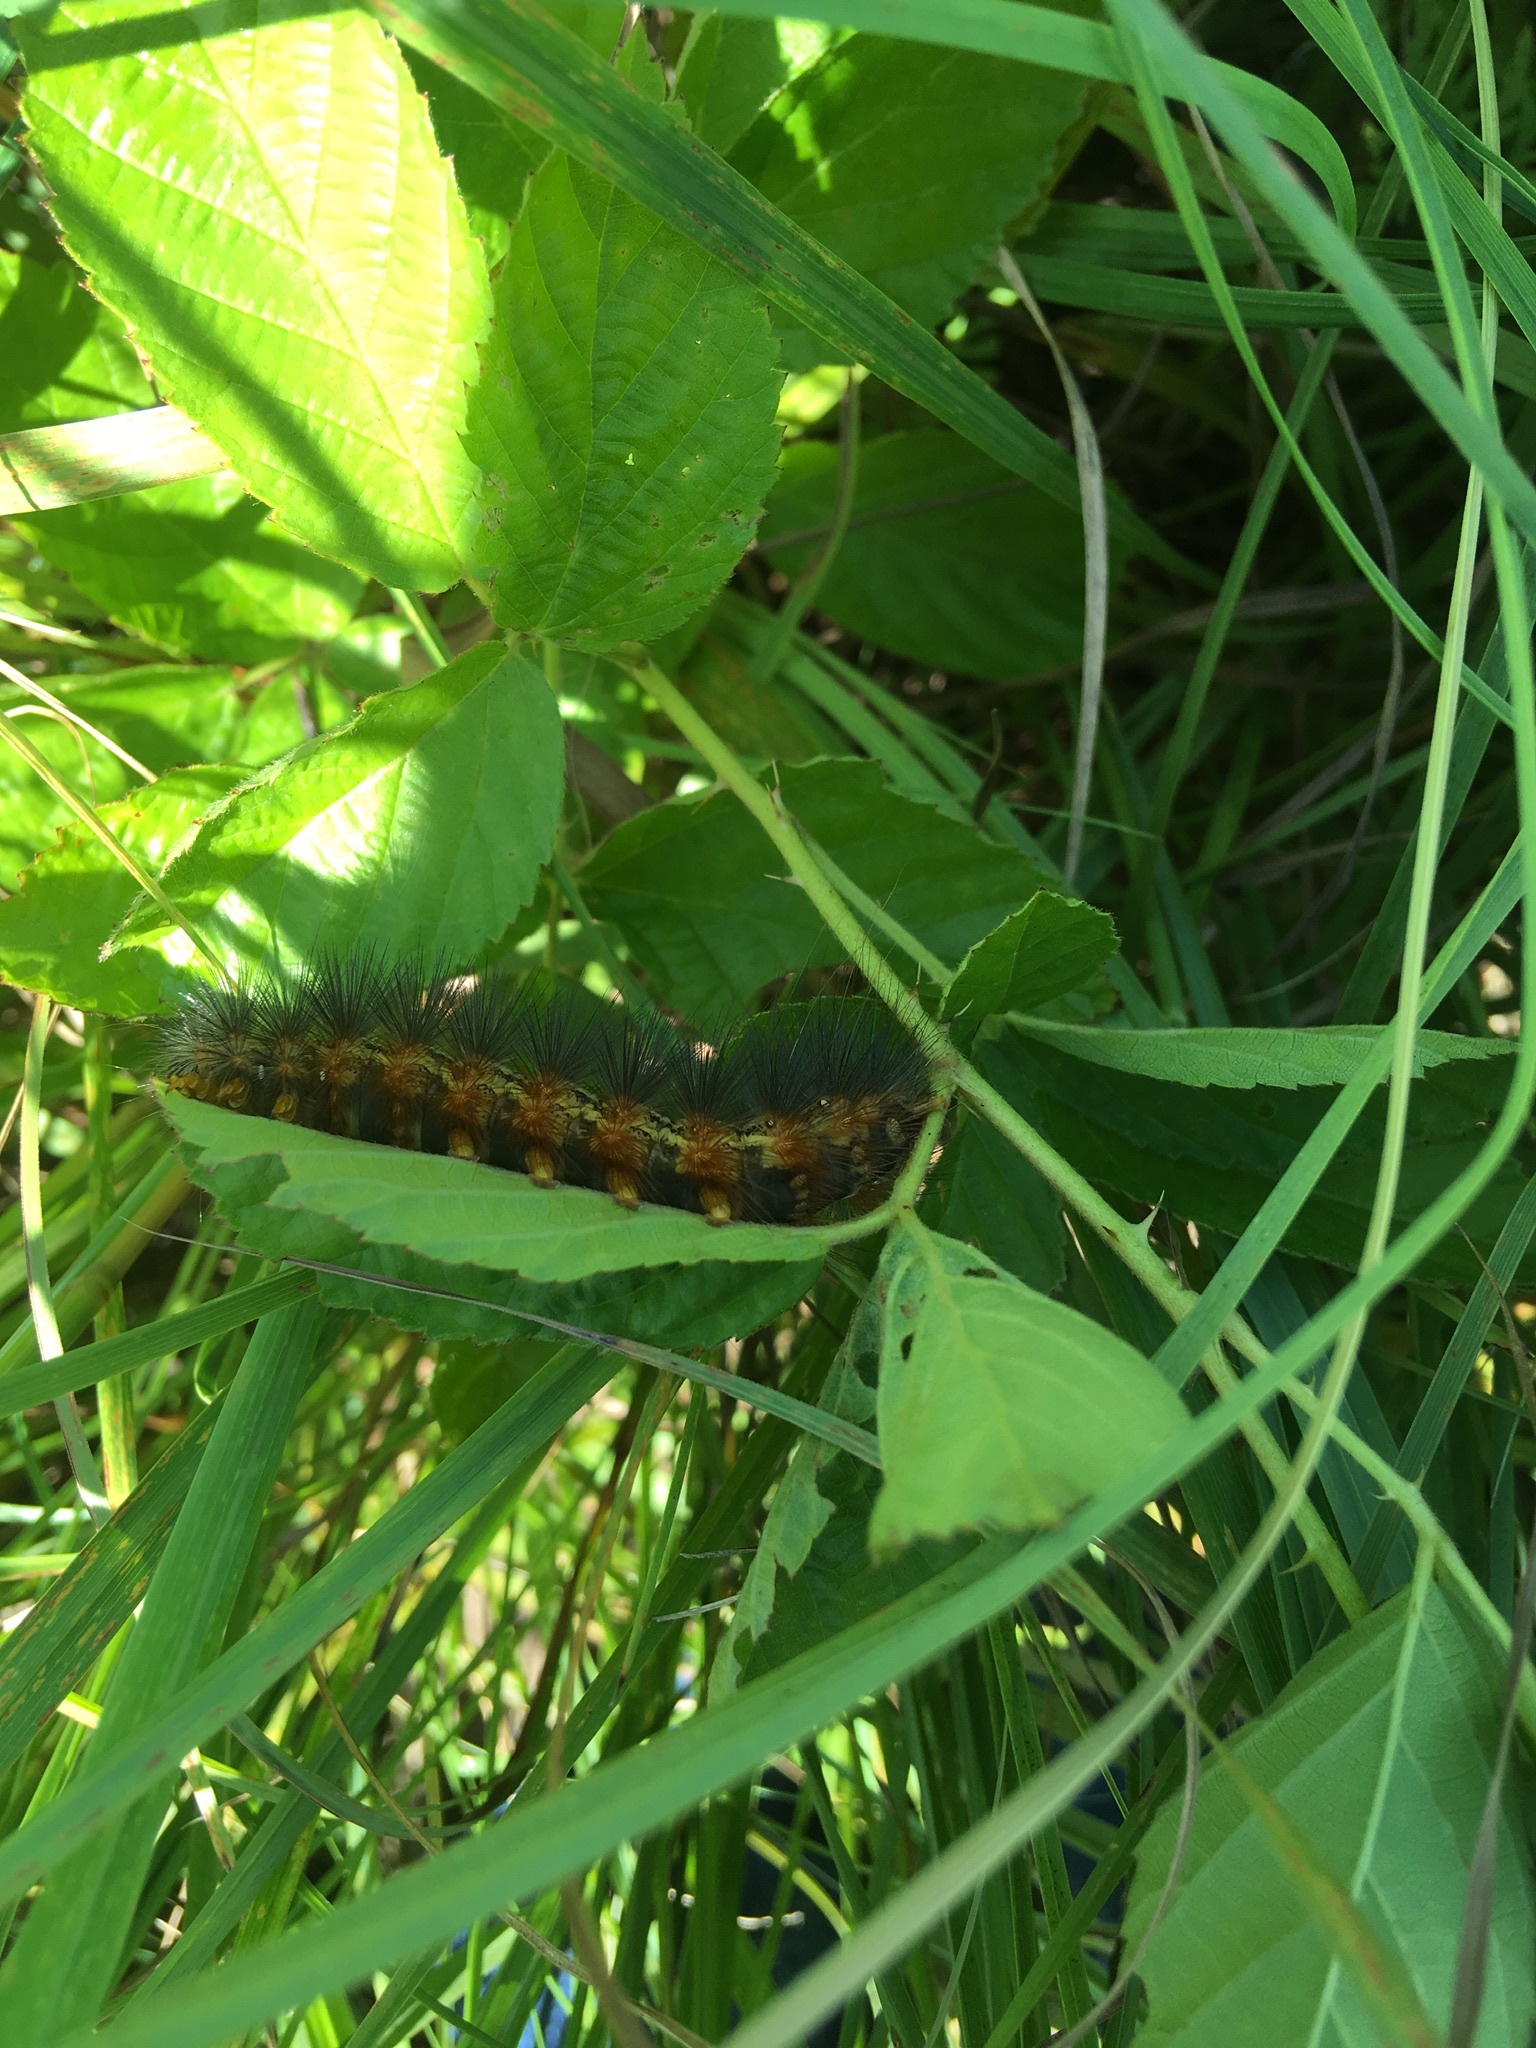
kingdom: Animalia
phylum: Arthropoda
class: Insecta
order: Lepidoptera
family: Erebidae
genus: Estigmene
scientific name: Estigmene acrea
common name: Salt marsh moth
